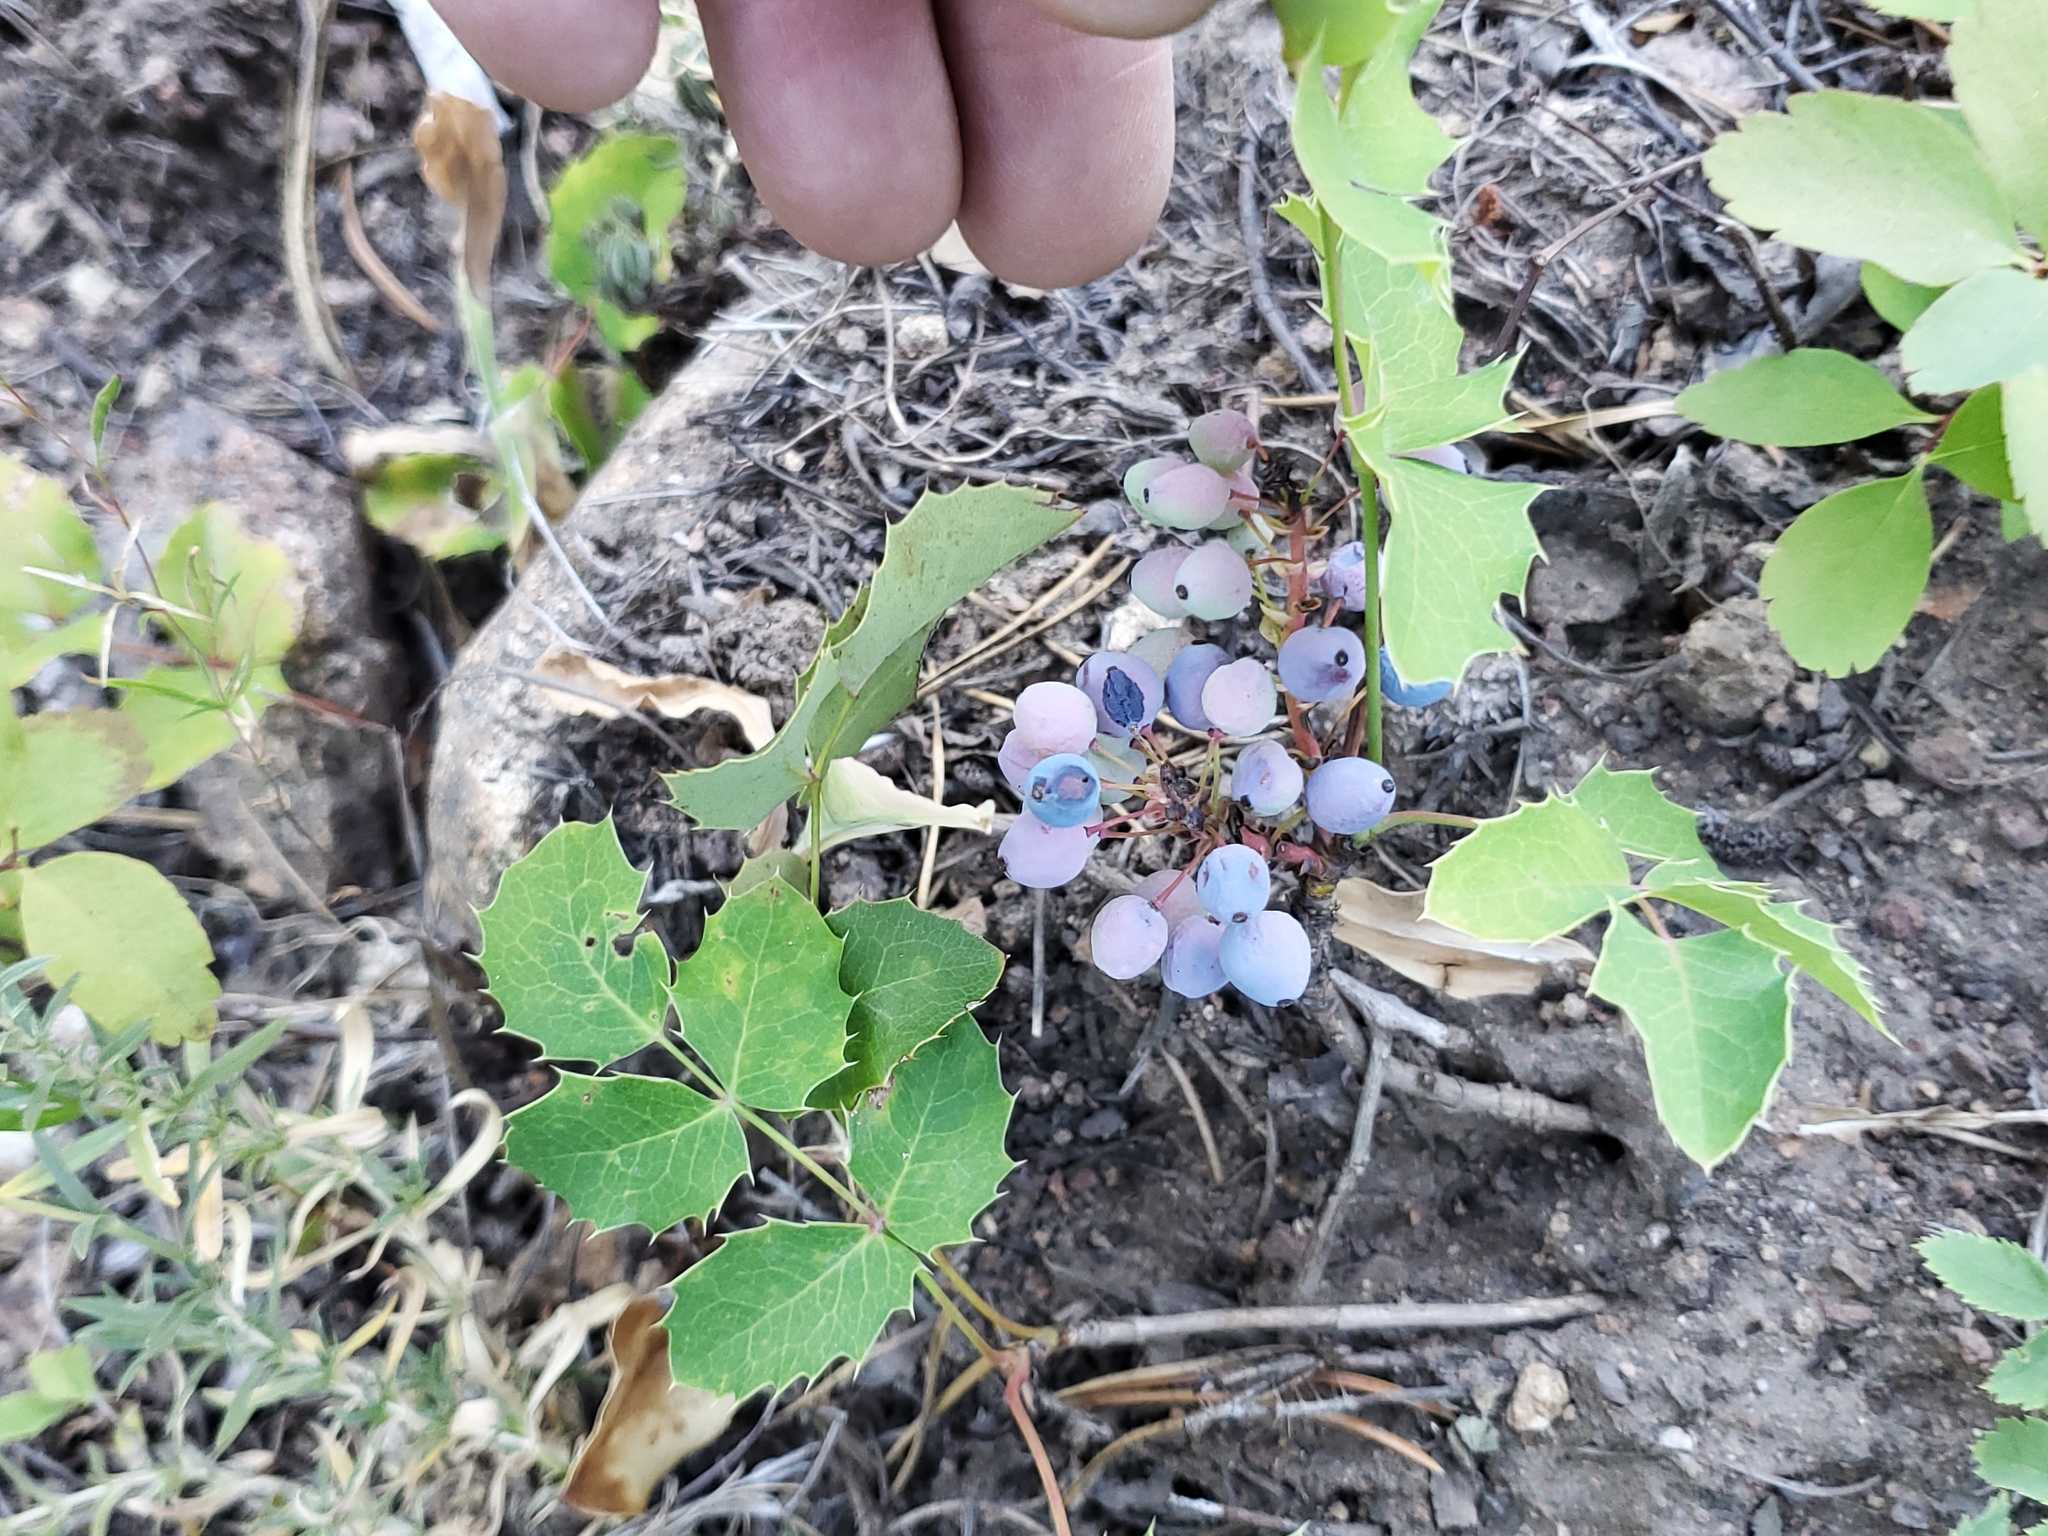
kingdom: Plantae
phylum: Tracheophyta
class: Magnoliopsida
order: Ranunculales
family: Berberidaceae
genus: Mahonia
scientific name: Mahonia repens
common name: Creeping oregon-grape
